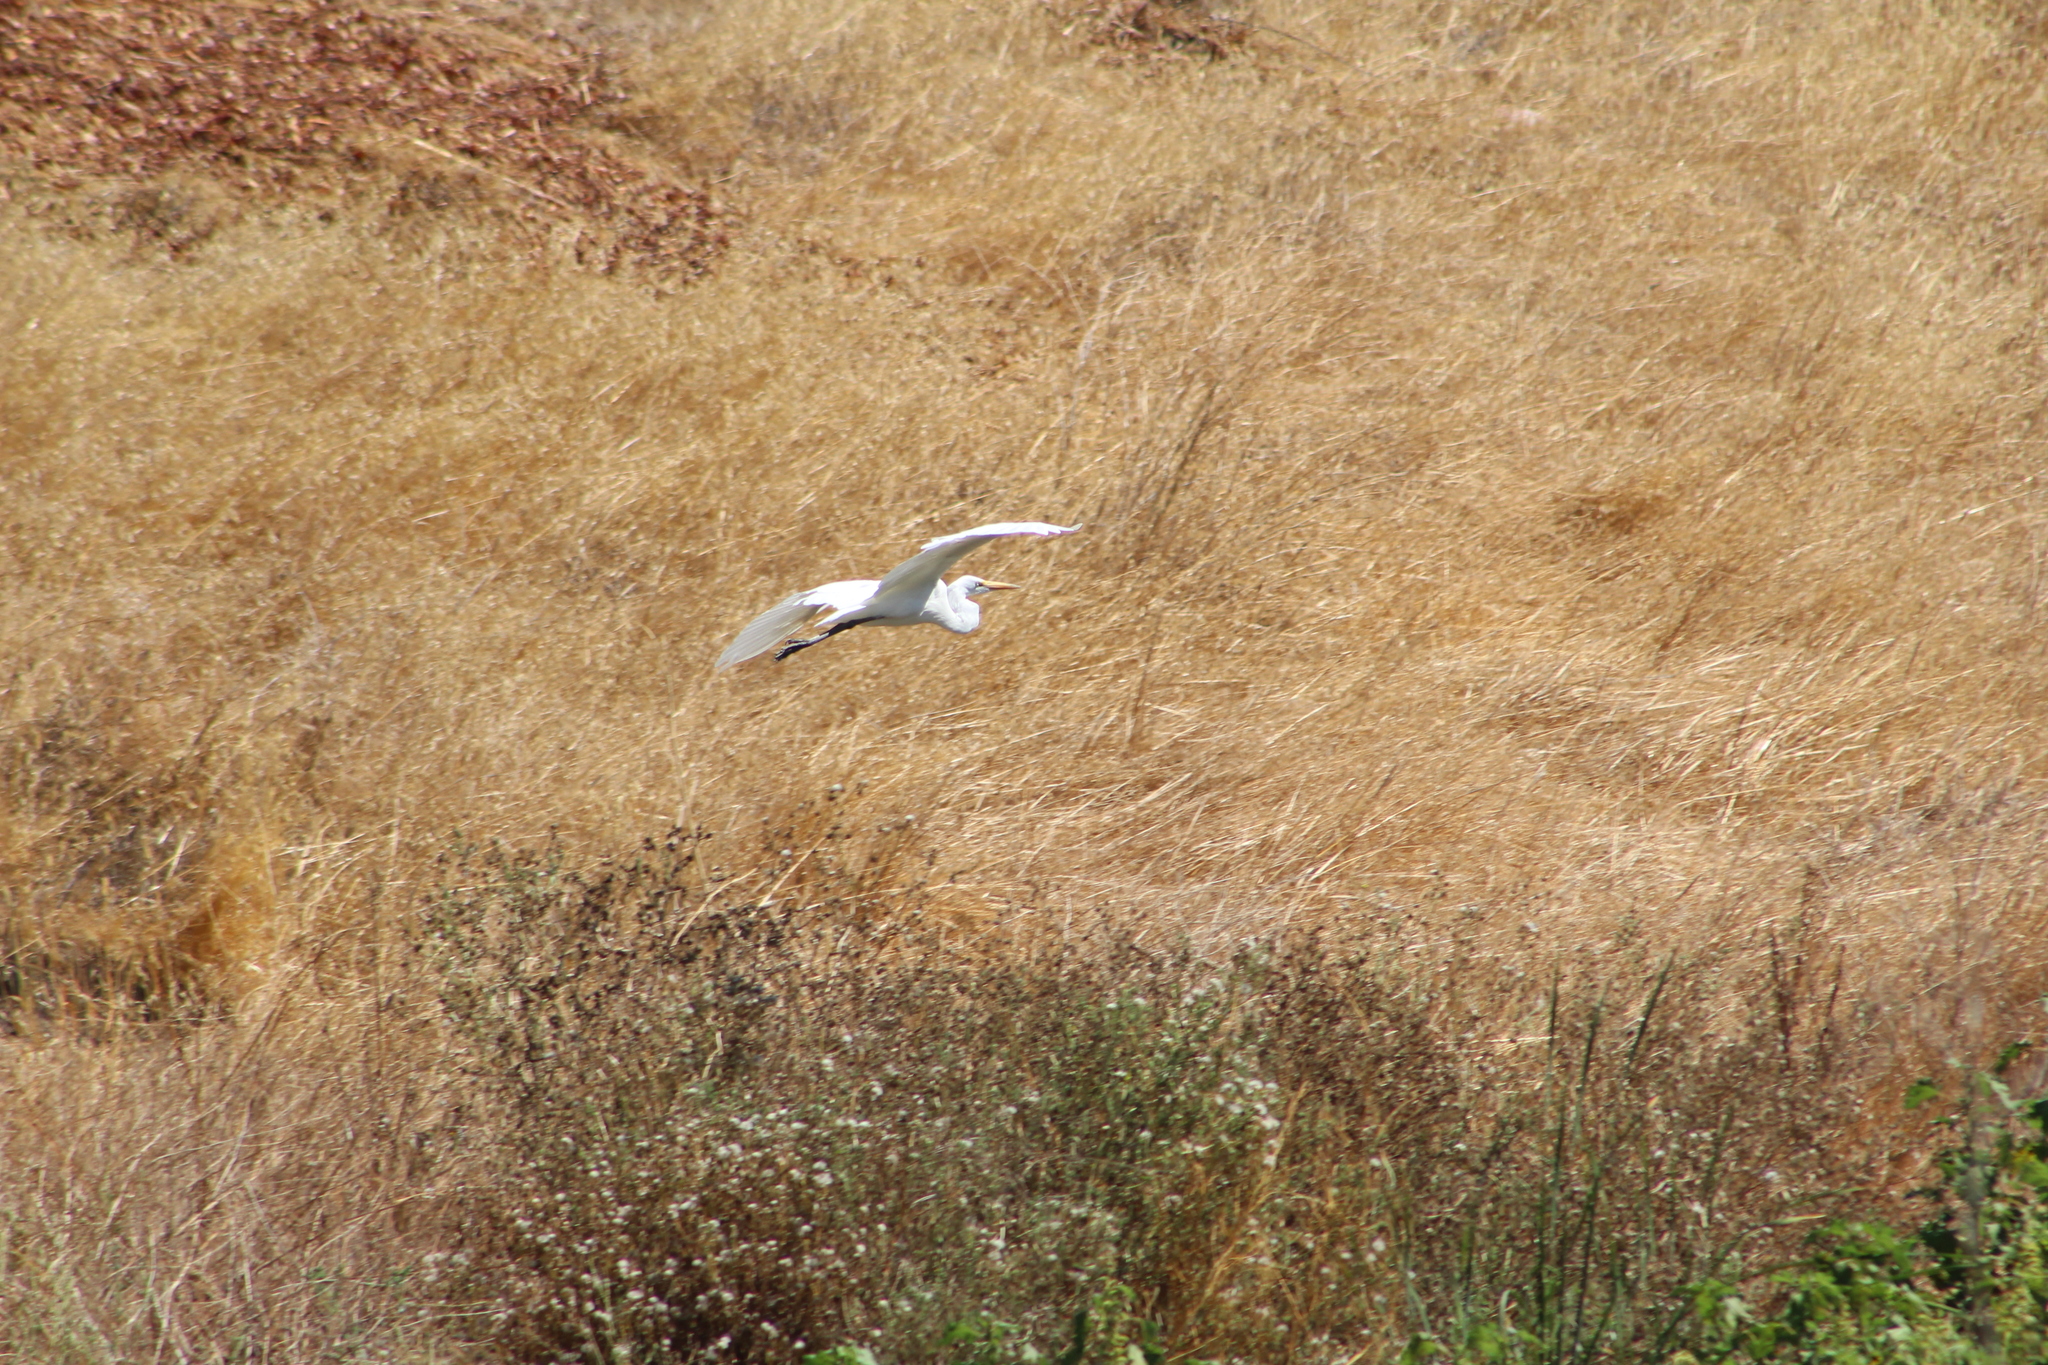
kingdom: Animalia
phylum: Chordata
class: Aves
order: Pelecaniformes
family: Ardeidae
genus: Ardea
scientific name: Ardea alba
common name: Great egret
